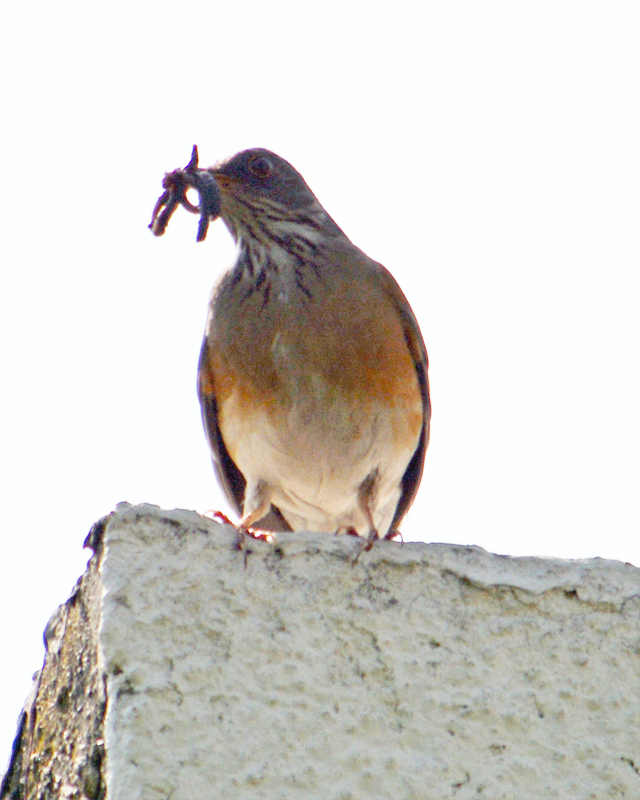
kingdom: Animalia
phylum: Chordata
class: Aves
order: Passeriformes
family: Turdidae
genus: Turdus
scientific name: Turdus rufopalliatus
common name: Rufous-backed robin
